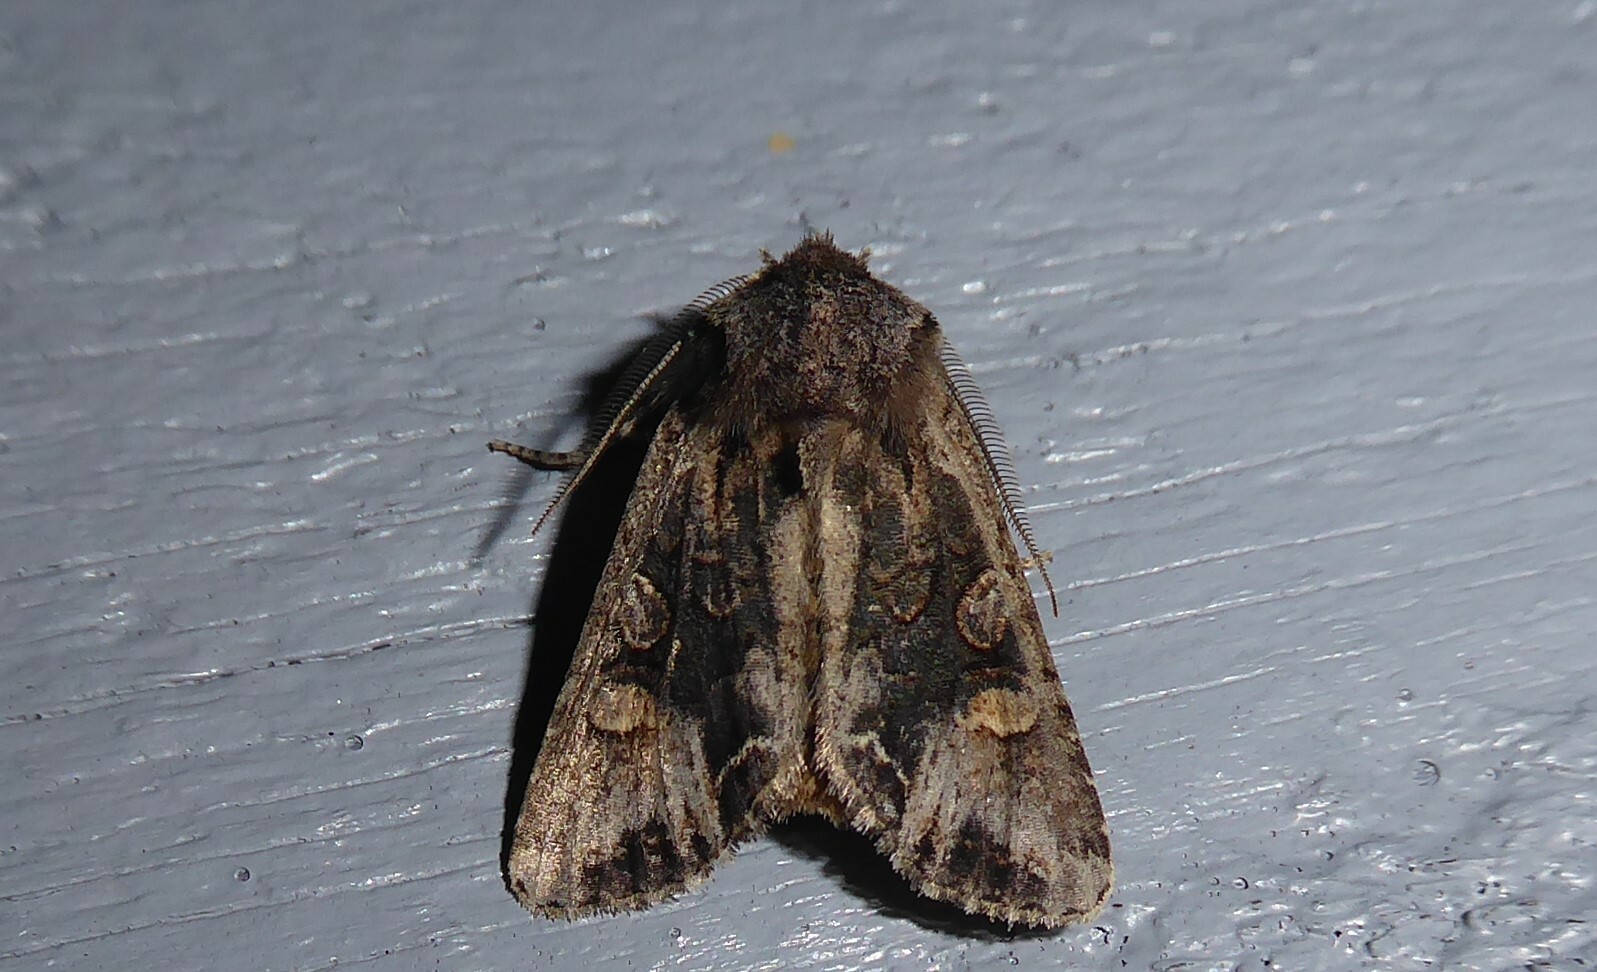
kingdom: Animalia
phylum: Arthropoda
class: Insecta
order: Lepidoptera
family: Noctuidae
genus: Ichneutica
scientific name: Ichneutica
